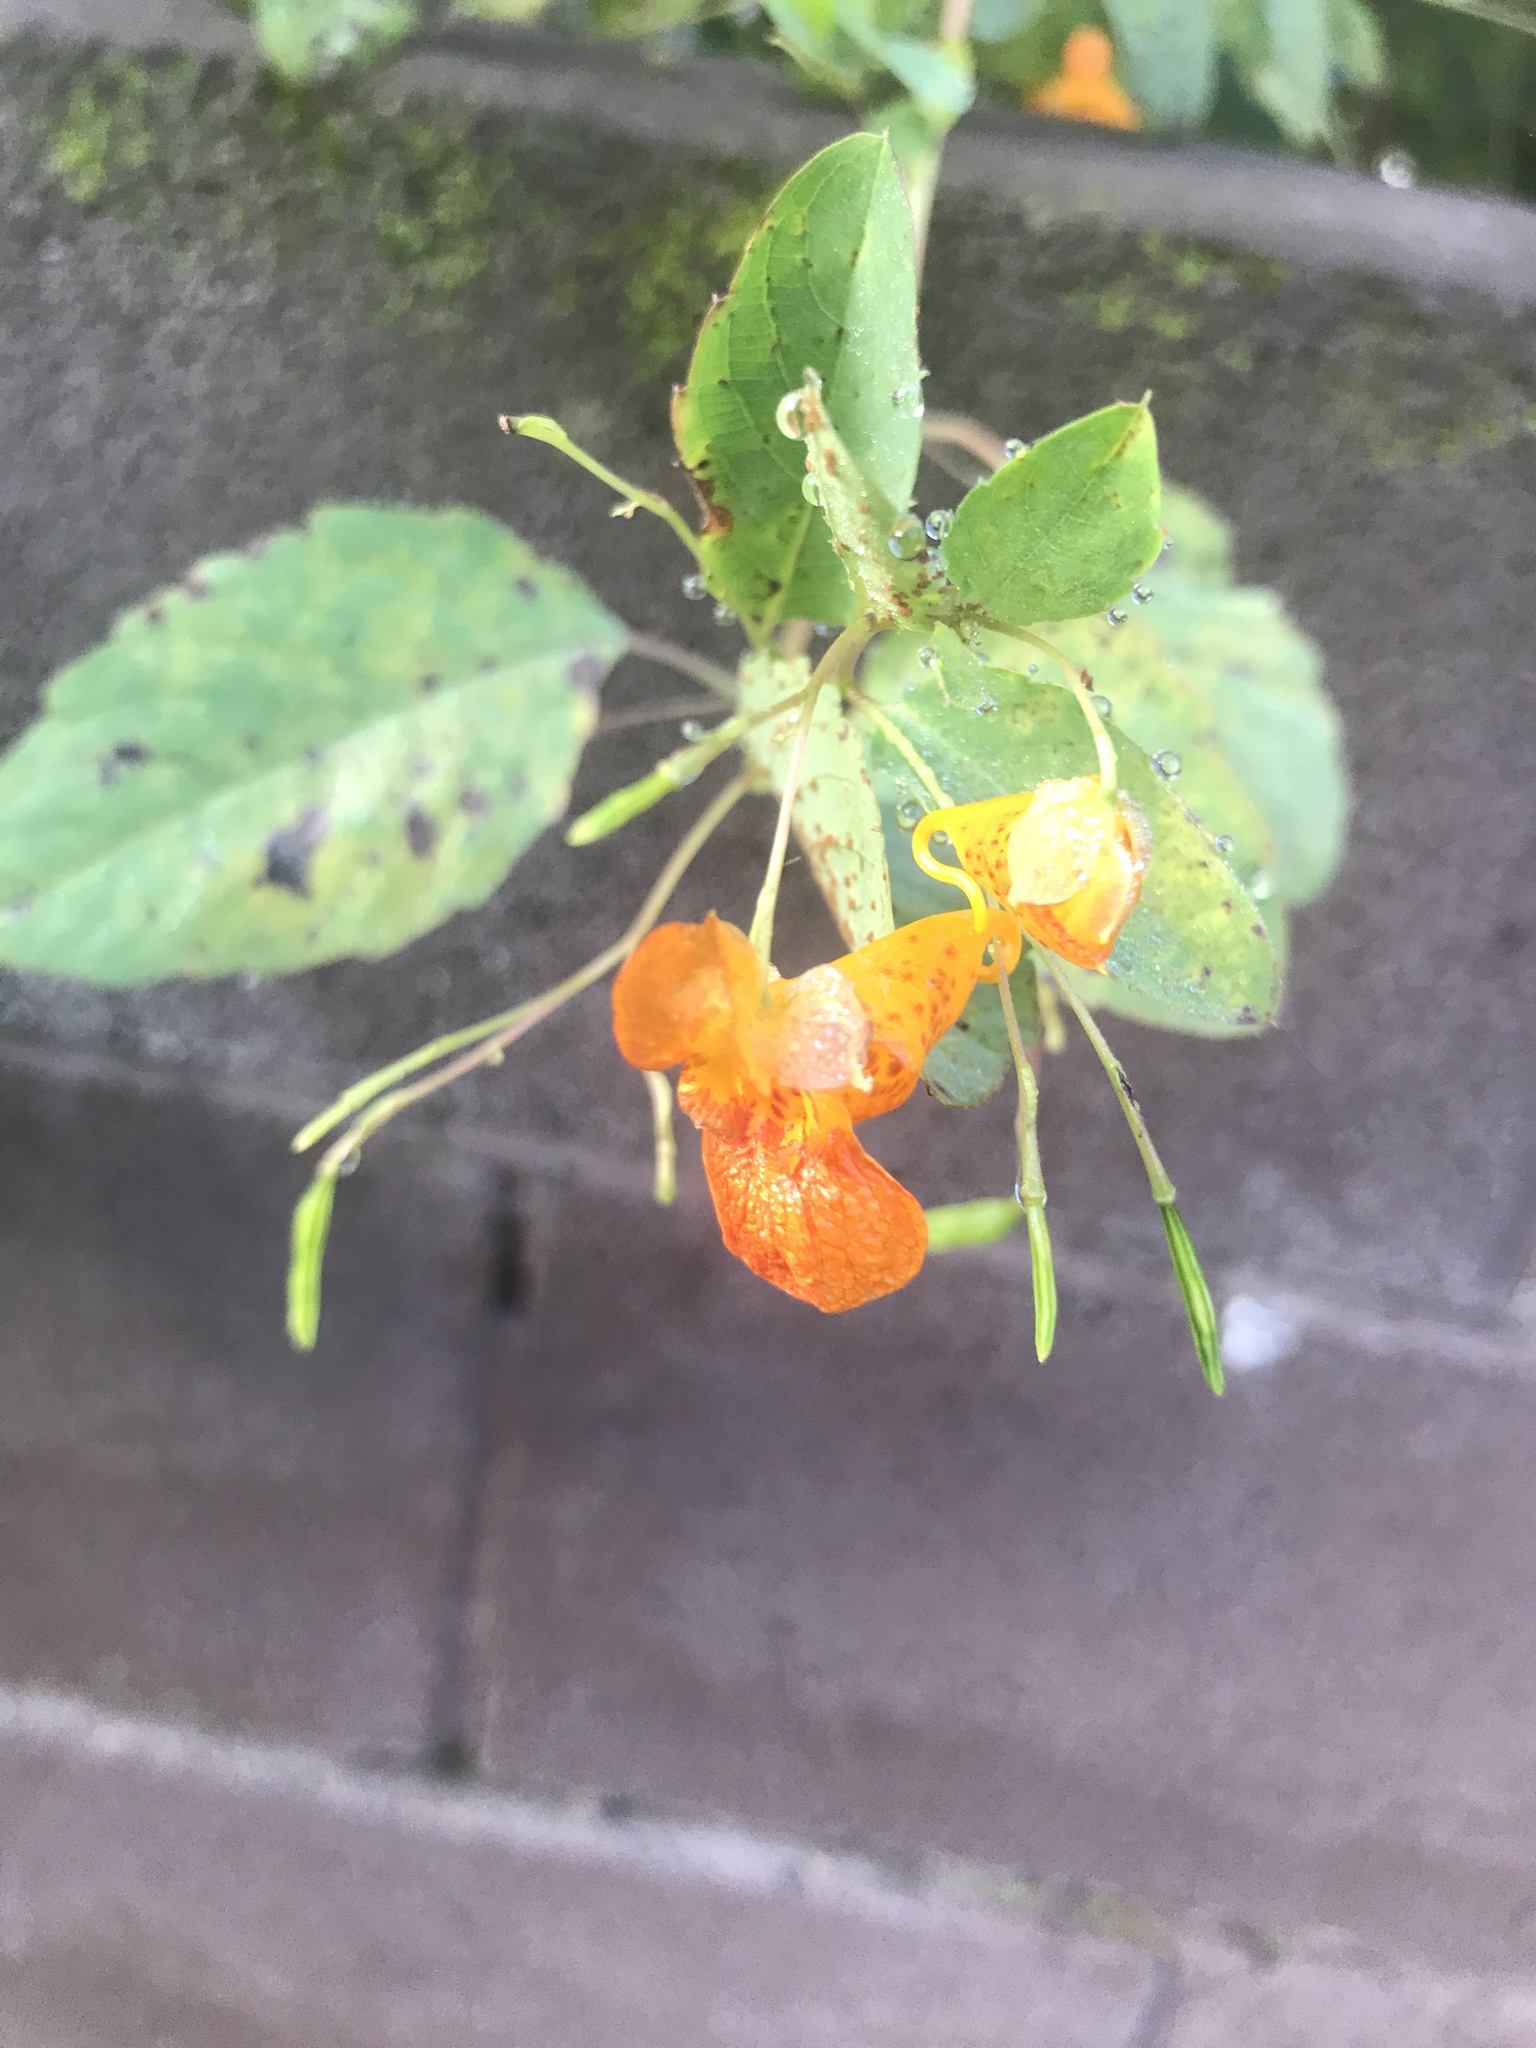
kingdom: Plantae
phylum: Tracheophyta
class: Magnoliopsida
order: Ericales
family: Balsaminaceae
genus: Impatiens
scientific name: Impatiens capensis
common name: Orange balsam
